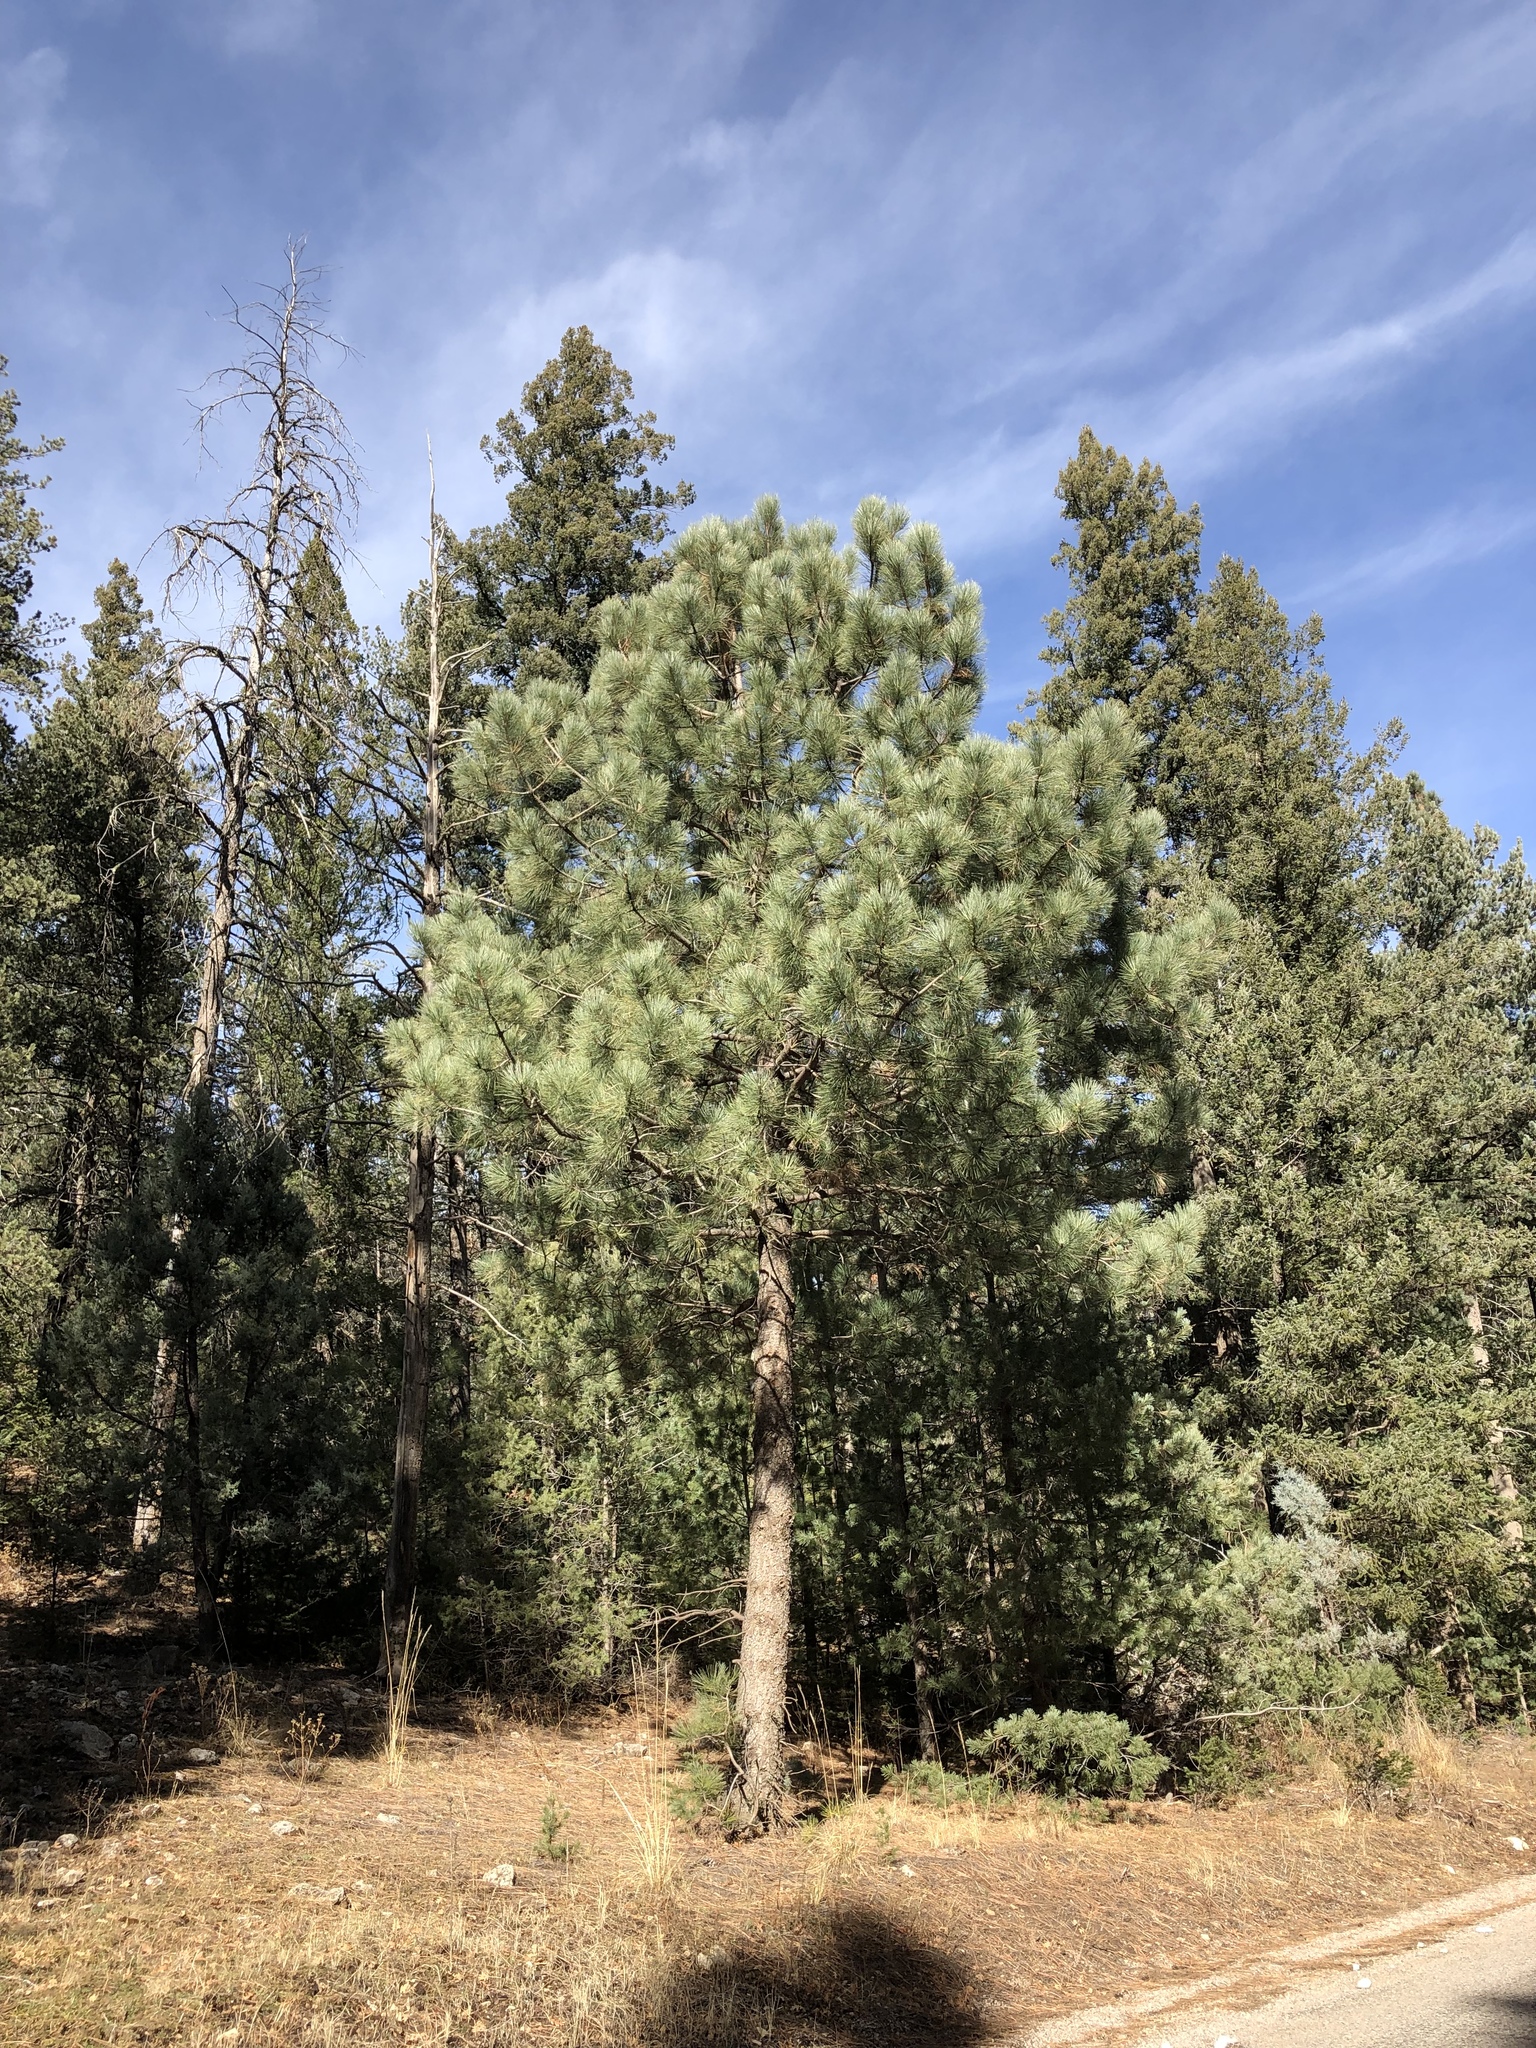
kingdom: Plantae
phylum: Tracheophyta
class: Pinopsida
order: Pinales
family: Pinaceae
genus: Pinus
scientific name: Pinus ponderosa
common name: Western yellow-pine
